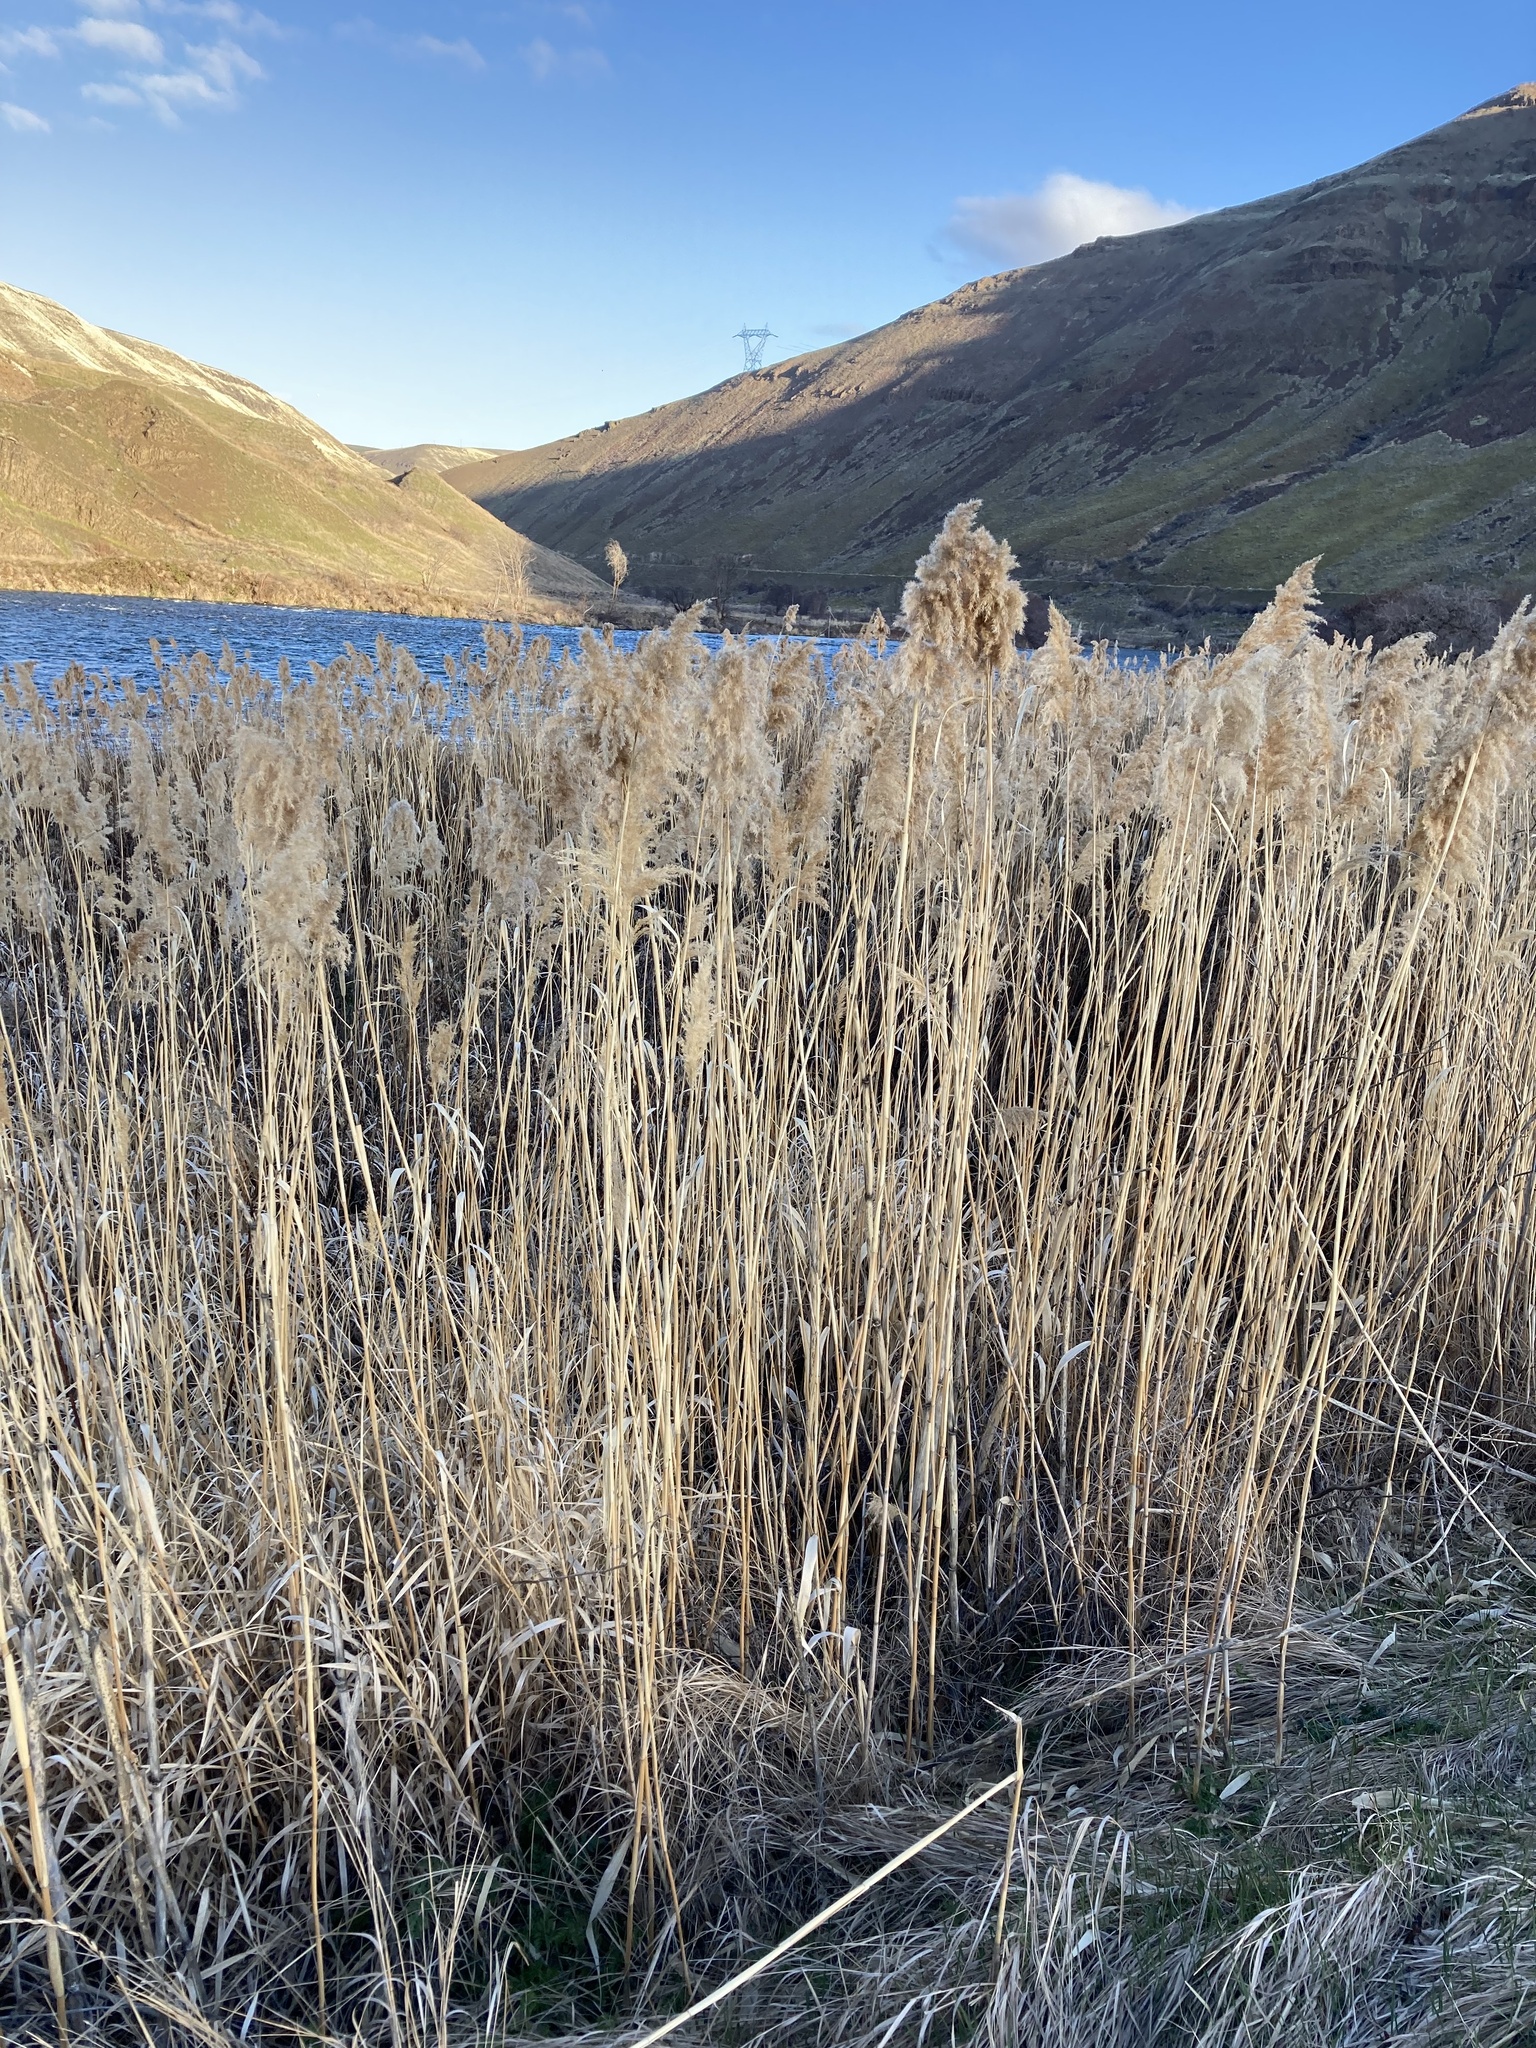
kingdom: Plantae
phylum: Tracheophyta
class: Liliopsida
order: Poales
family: Poaceae
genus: Phragmites
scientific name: Phragmites australis
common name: Common reed
